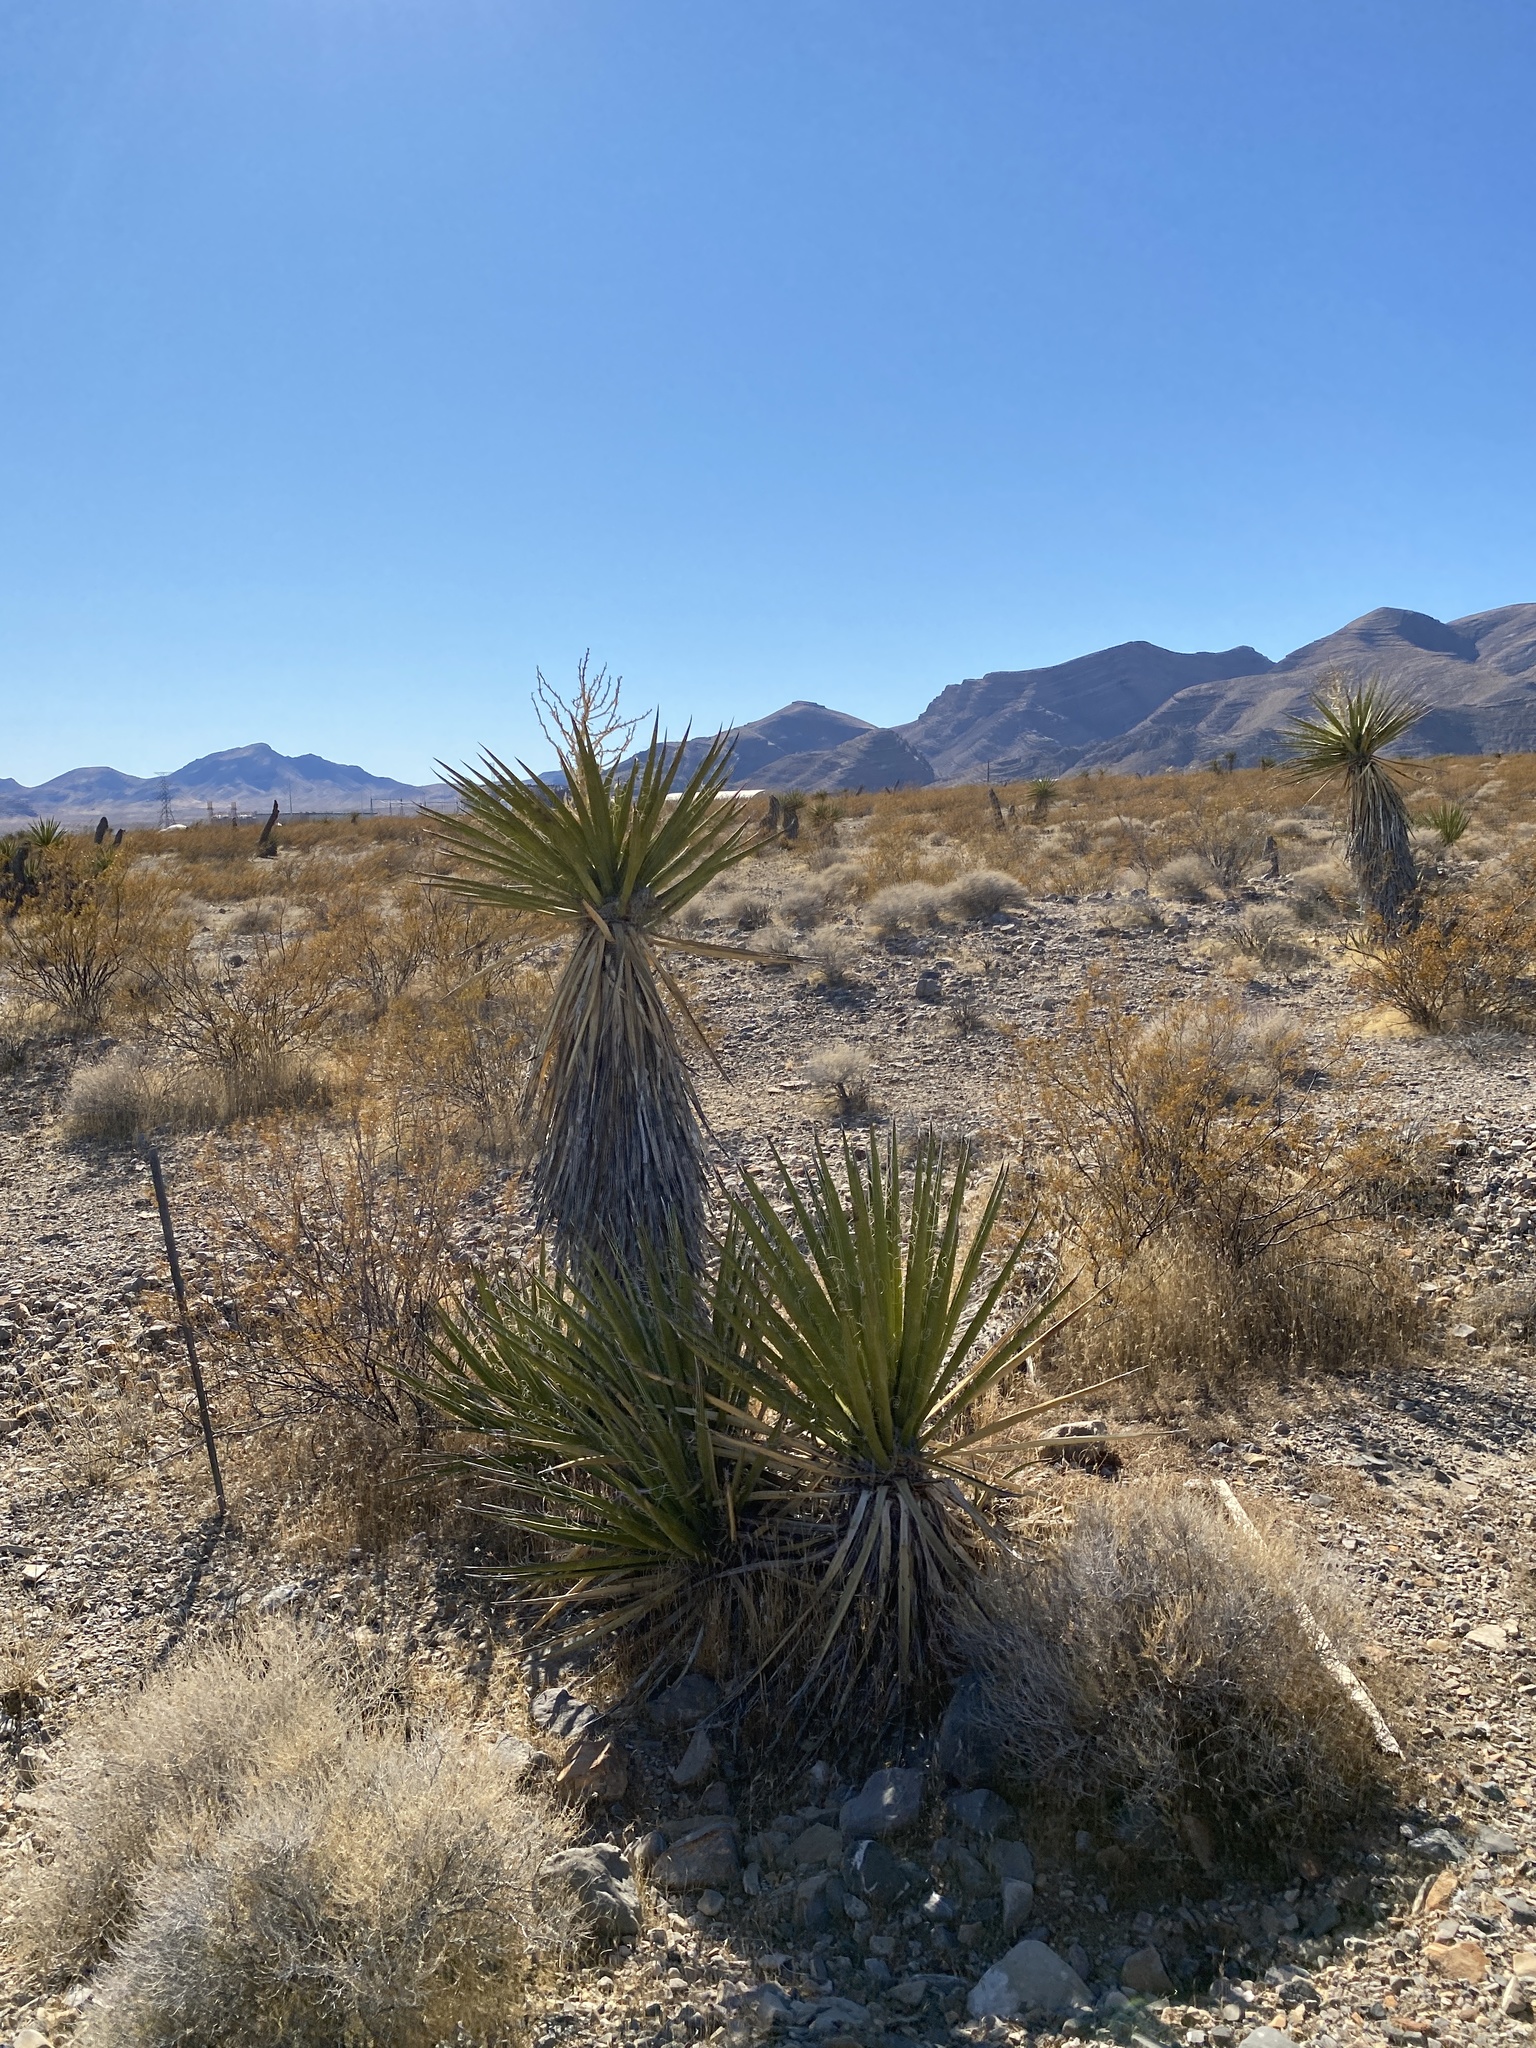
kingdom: Plantae
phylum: Tracheophyta
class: Liliopsida
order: Asparagales
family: Asparagaceae
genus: Yucca
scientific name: Yucca schidigera
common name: Mojave yucca
